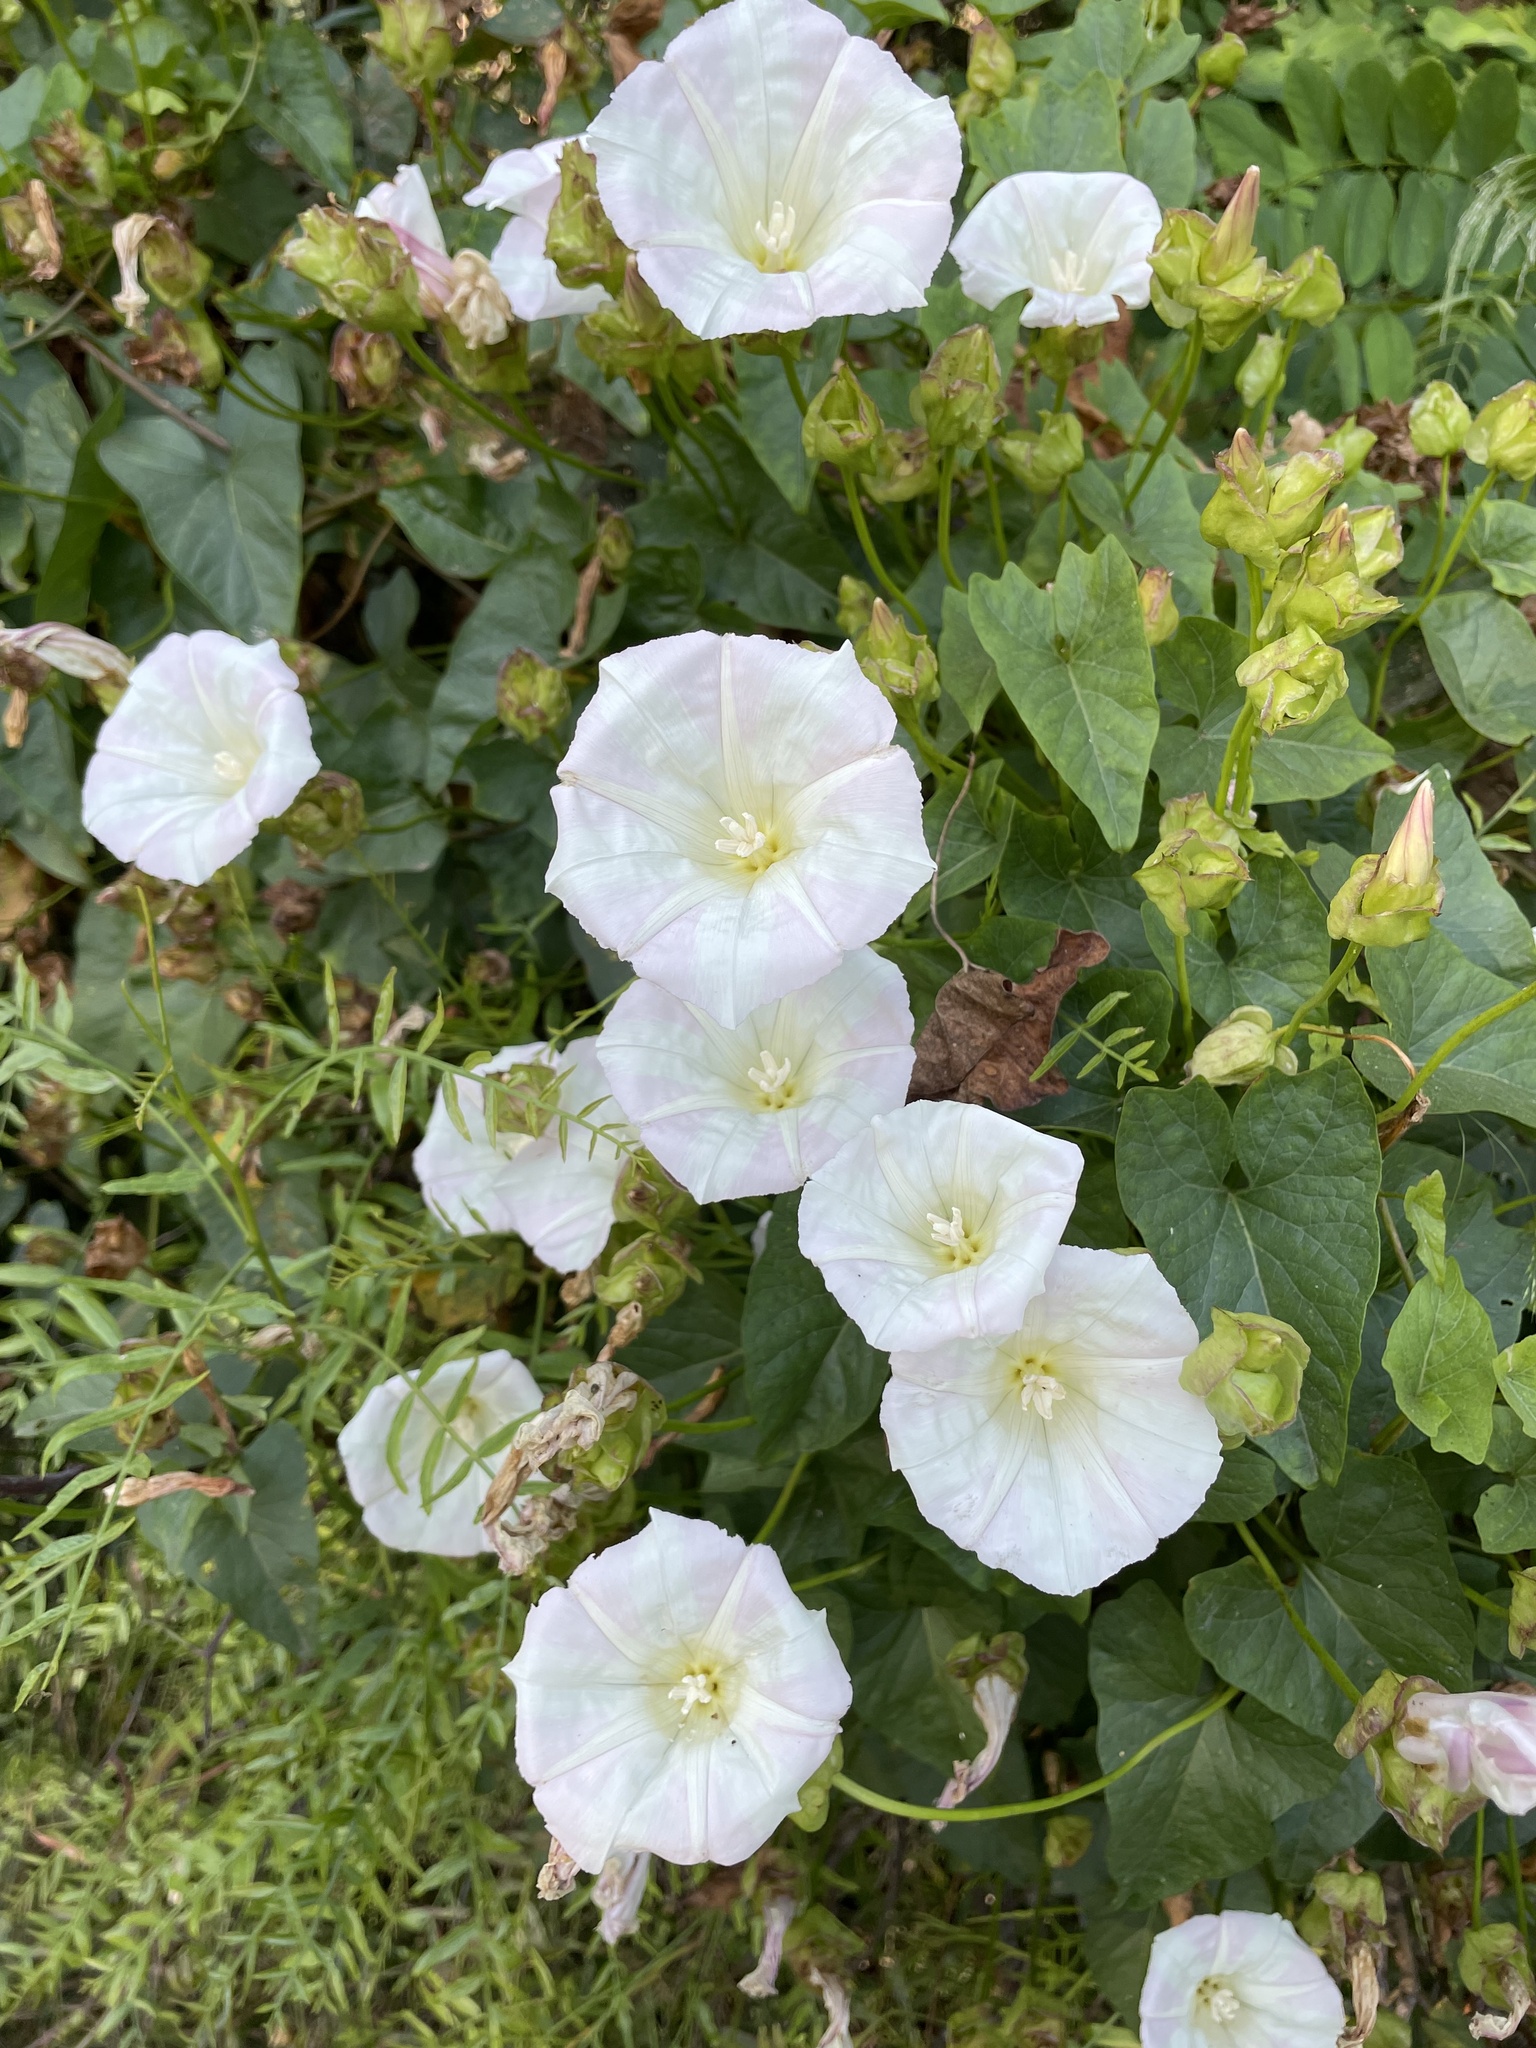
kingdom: Plantae
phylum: Tracheophyta
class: Magnoliopsida
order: Solanales
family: Convolvulaceae
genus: Calystegia
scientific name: Calystegia macrostegia
